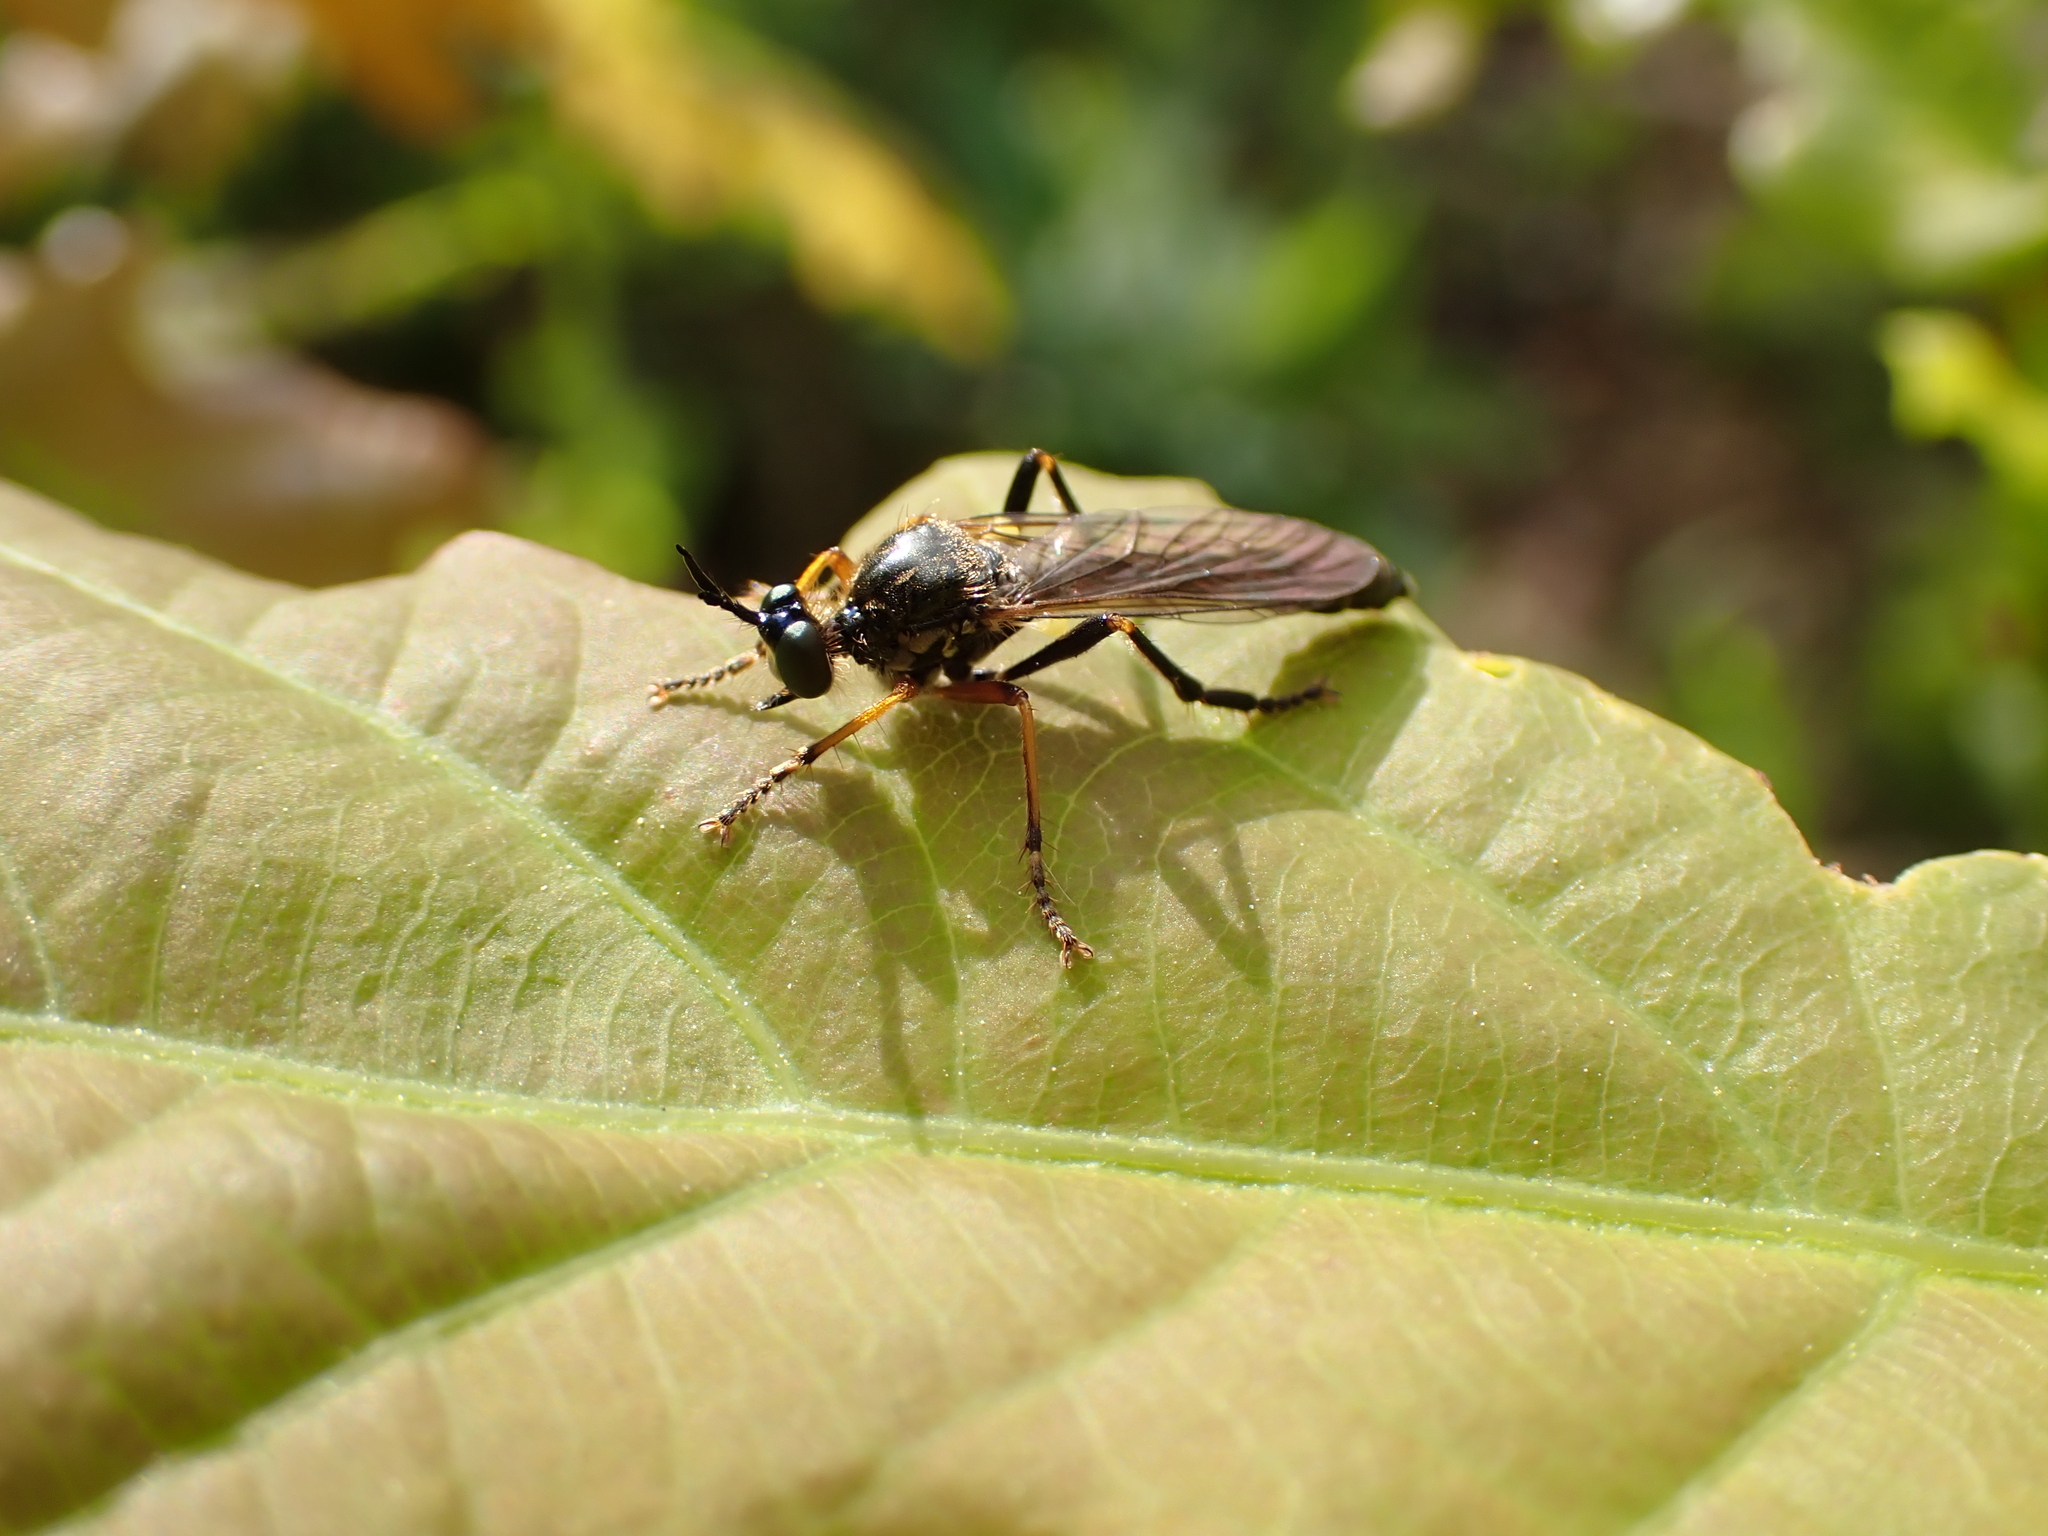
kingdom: Animalia
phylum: Arthropoda
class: Insecta
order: Diptera
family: Asilidae
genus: Dioctria
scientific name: Dioctria rufipes
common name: Common red-legged robberfly
